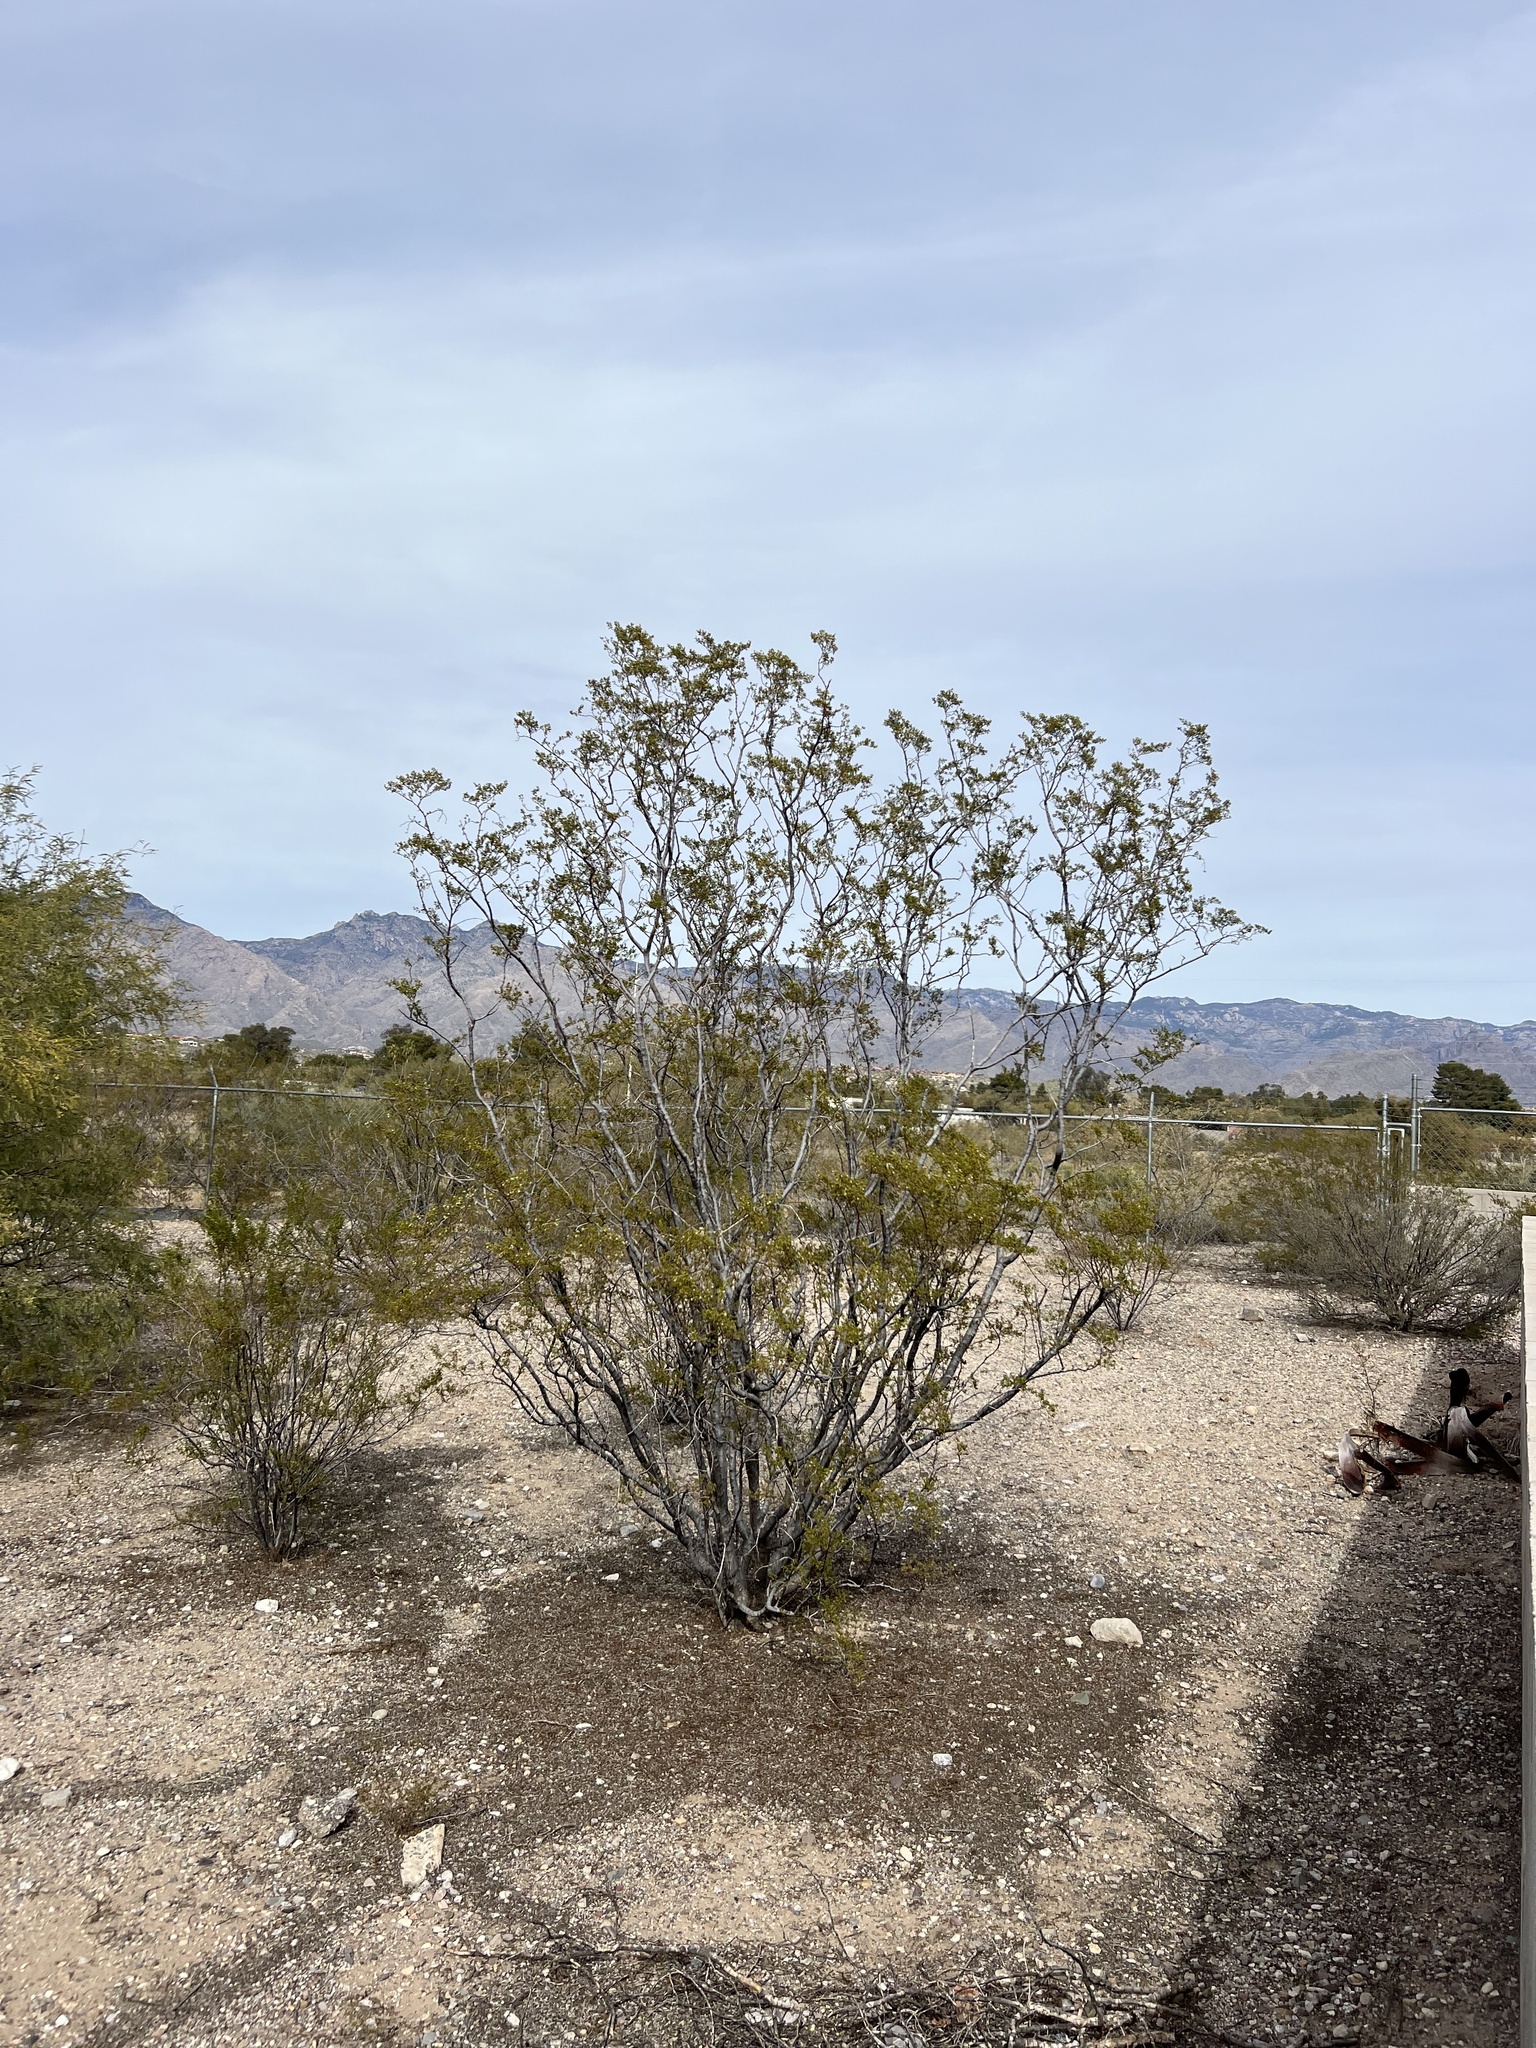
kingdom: Plantae
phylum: Tracheophyta
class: Magnoliopsida
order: Zygophyllales
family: Zygophyllaceae
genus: Larrea
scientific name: Larrea tridentata
